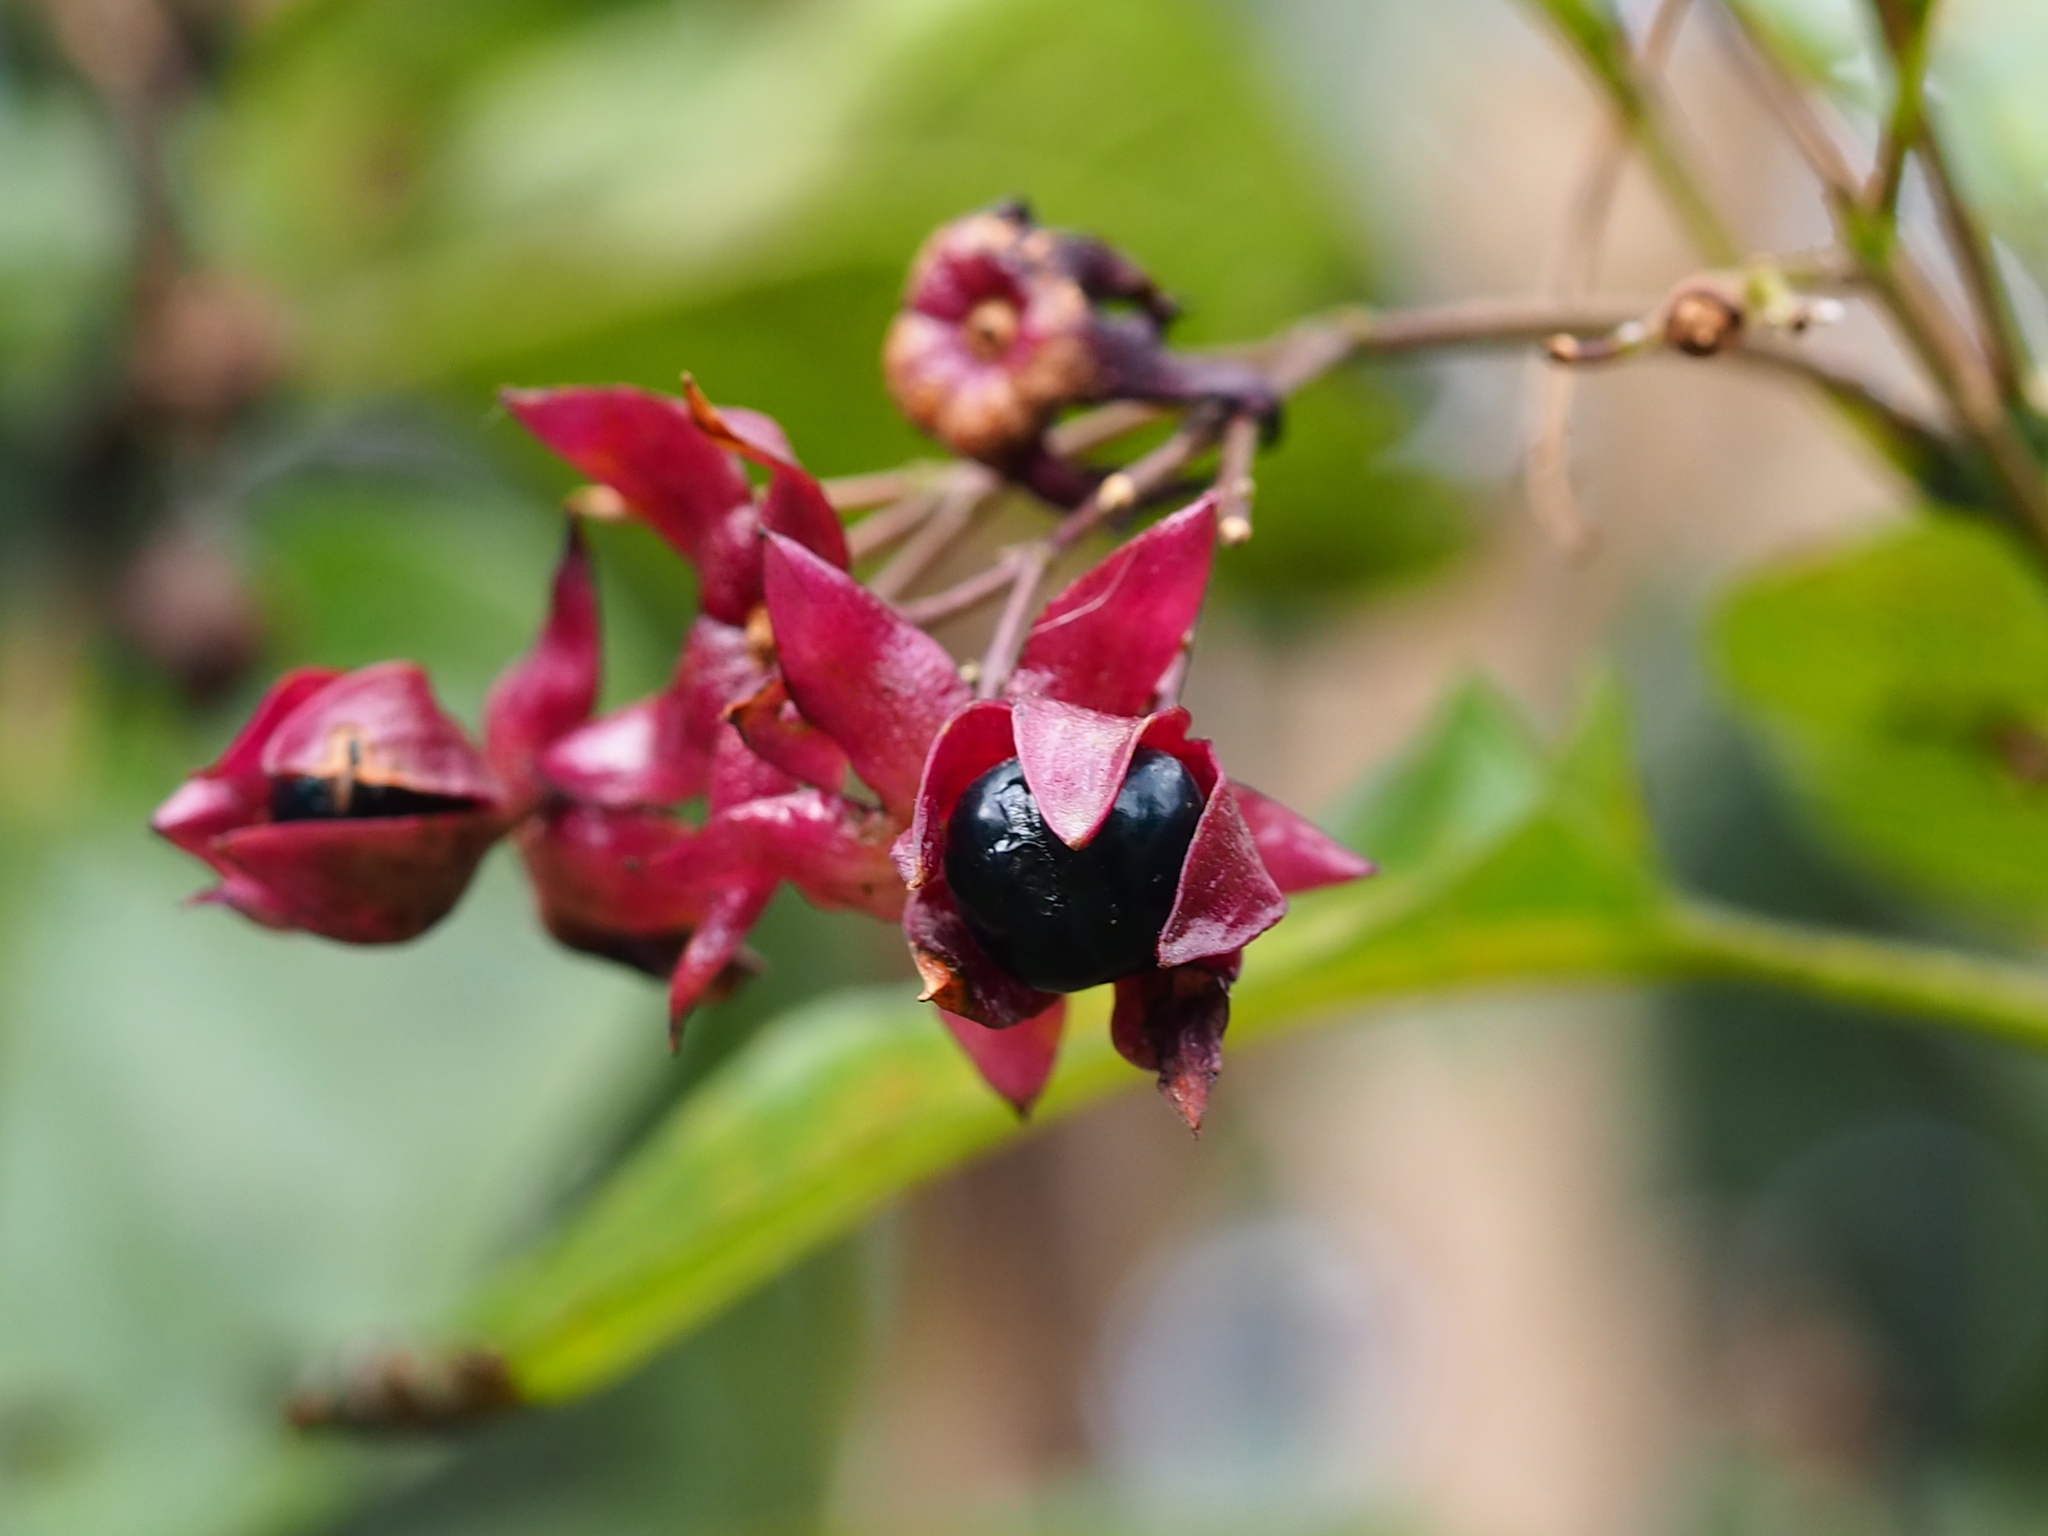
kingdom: Plantae
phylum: Tracheophyta
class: Magnoliopsida
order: Lamiales
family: Lamiaceae
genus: Clerodendrum
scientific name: Clerodendrum trichotomum
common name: Harlequin glorybower
